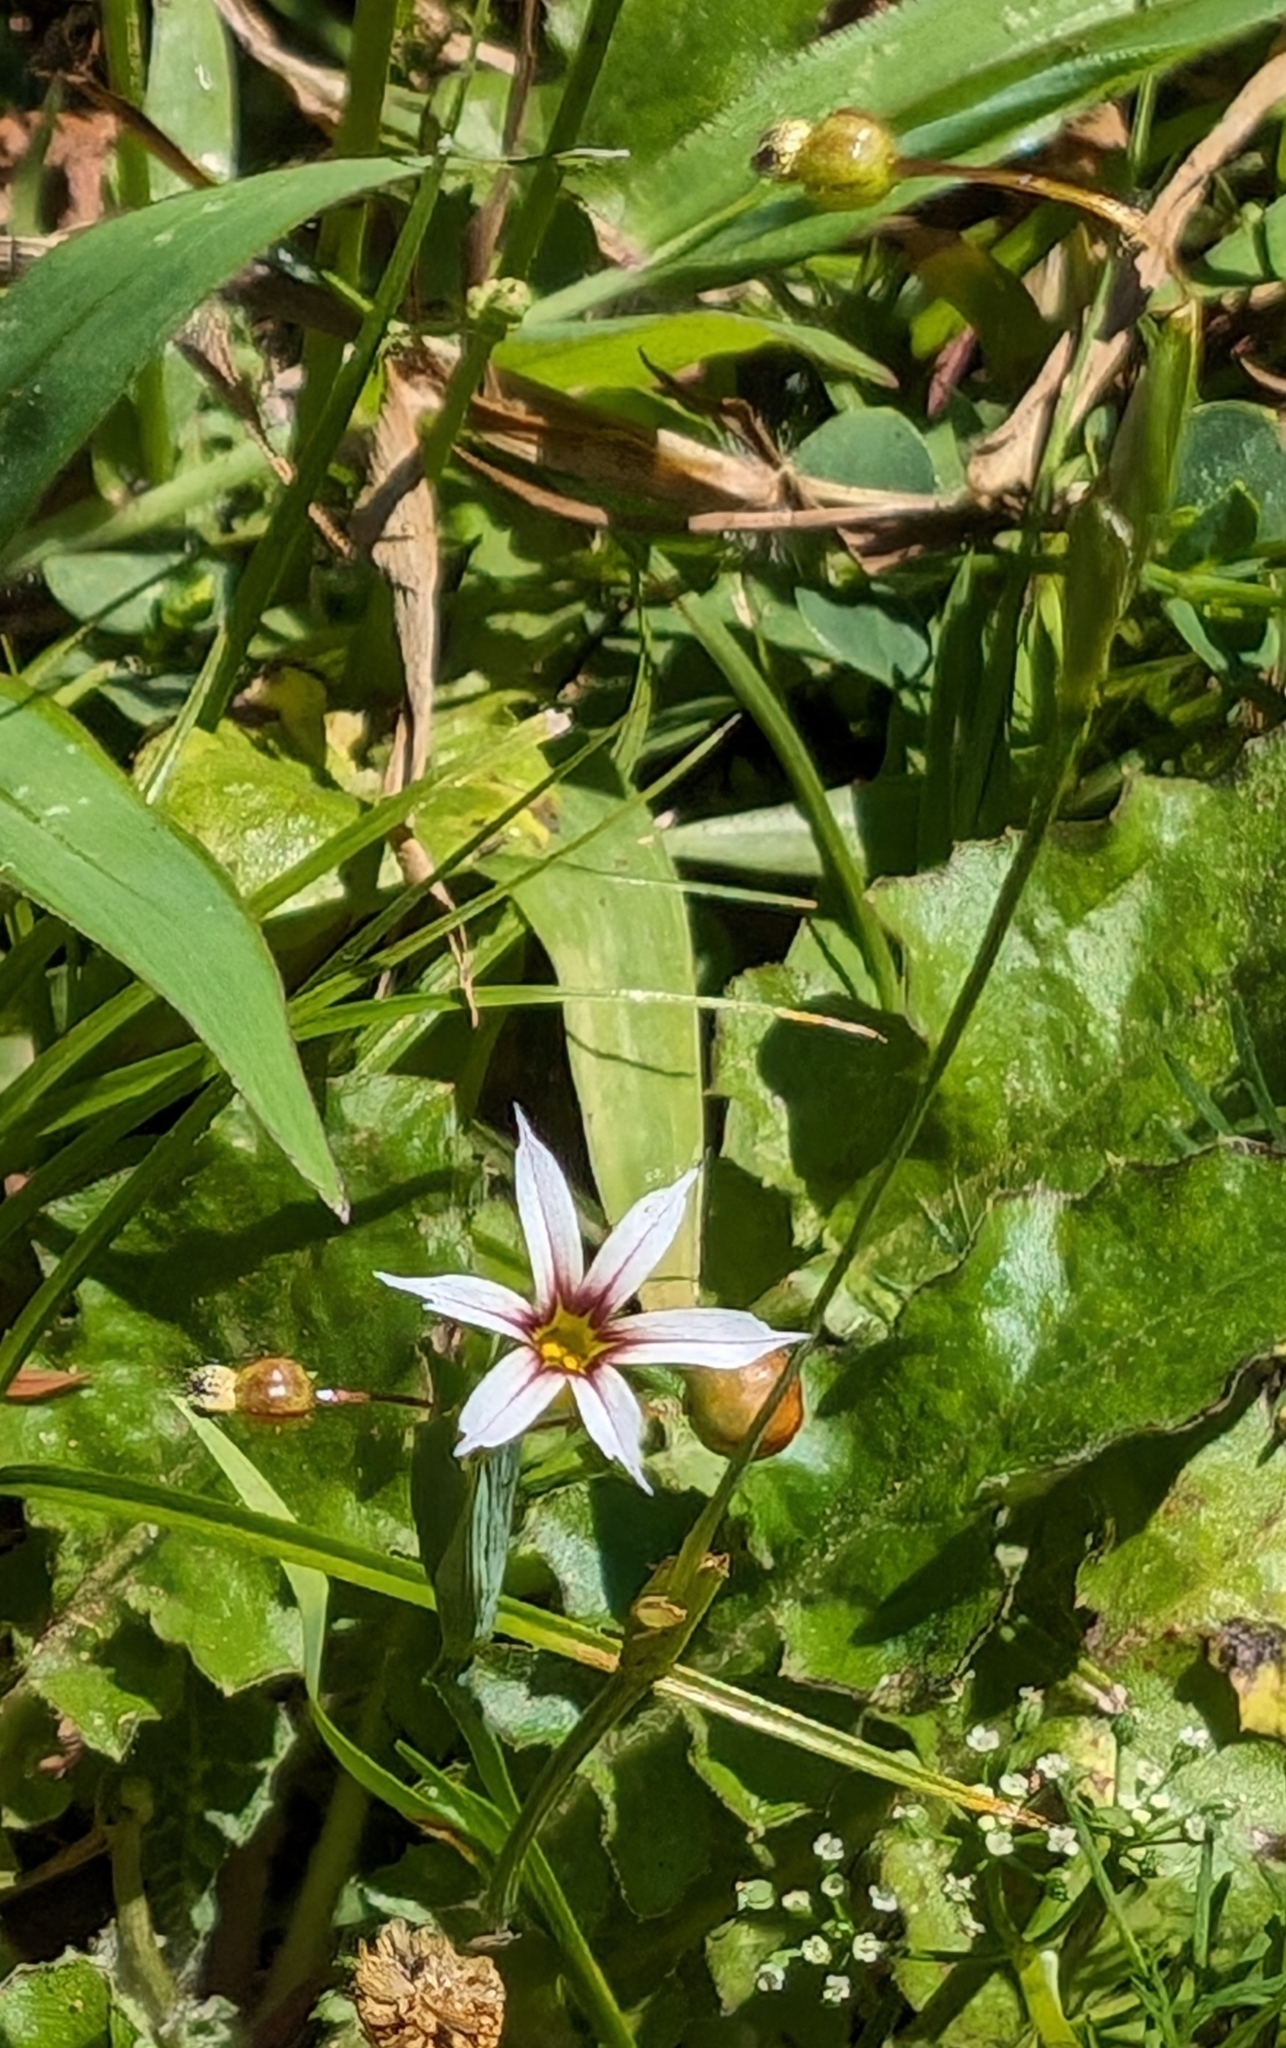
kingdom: Plantae
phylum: Tracheophyta
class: Liliopsida
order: Asparagales
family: Iridaceae
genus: Sisyrinchium
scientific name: Sisyrinchium micranthum
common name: Bermuda pigroot
